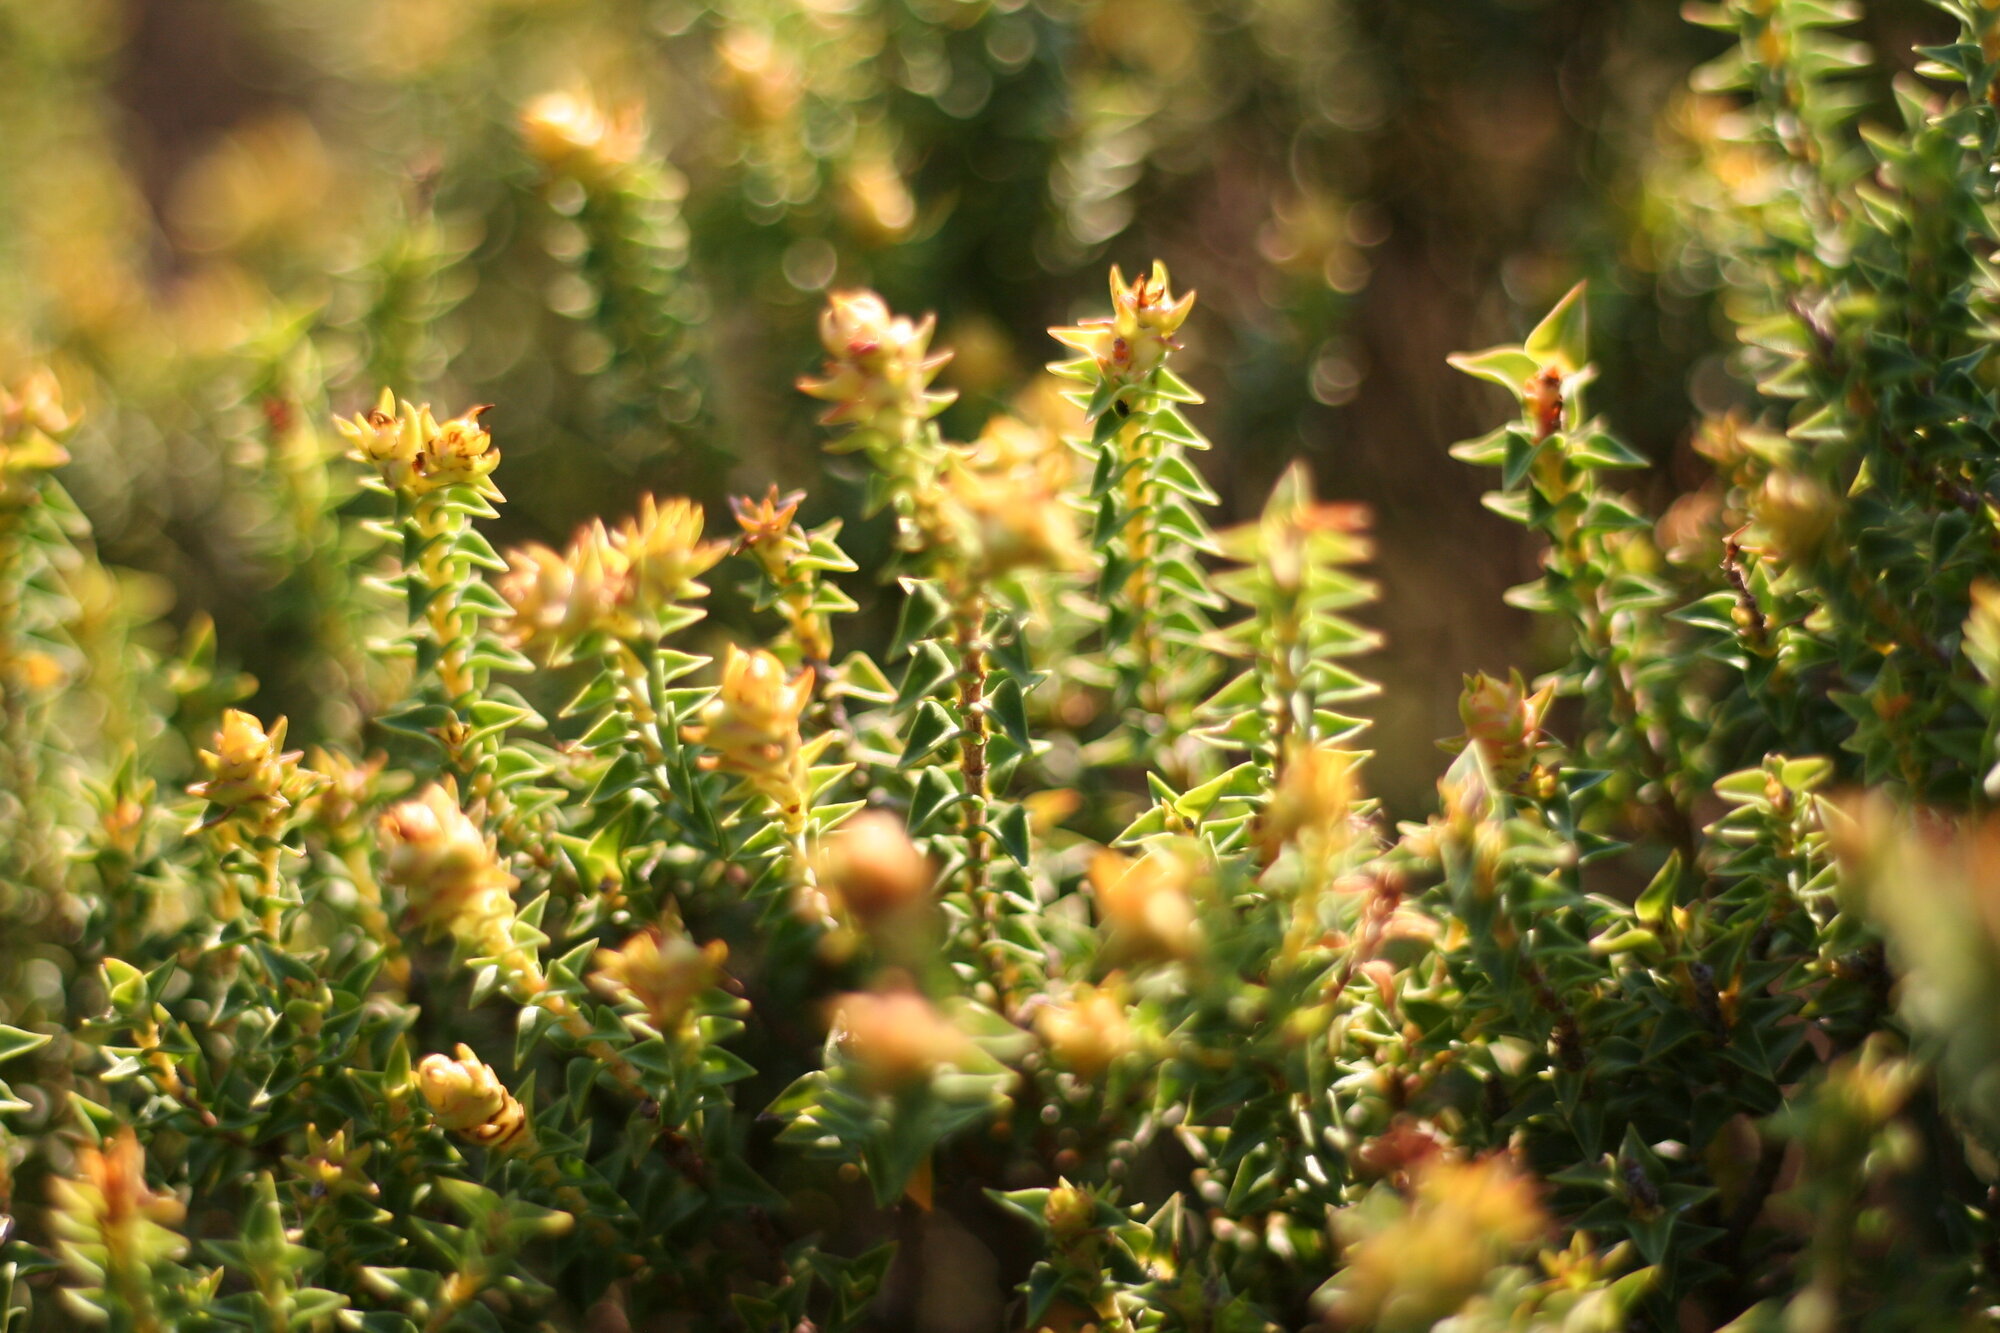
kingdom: Plantae
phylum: Tracheophyta
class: Magnoliopsida
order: Myrtales
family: Penaeaceae
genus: Penaea
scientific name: Penaea mucronata
